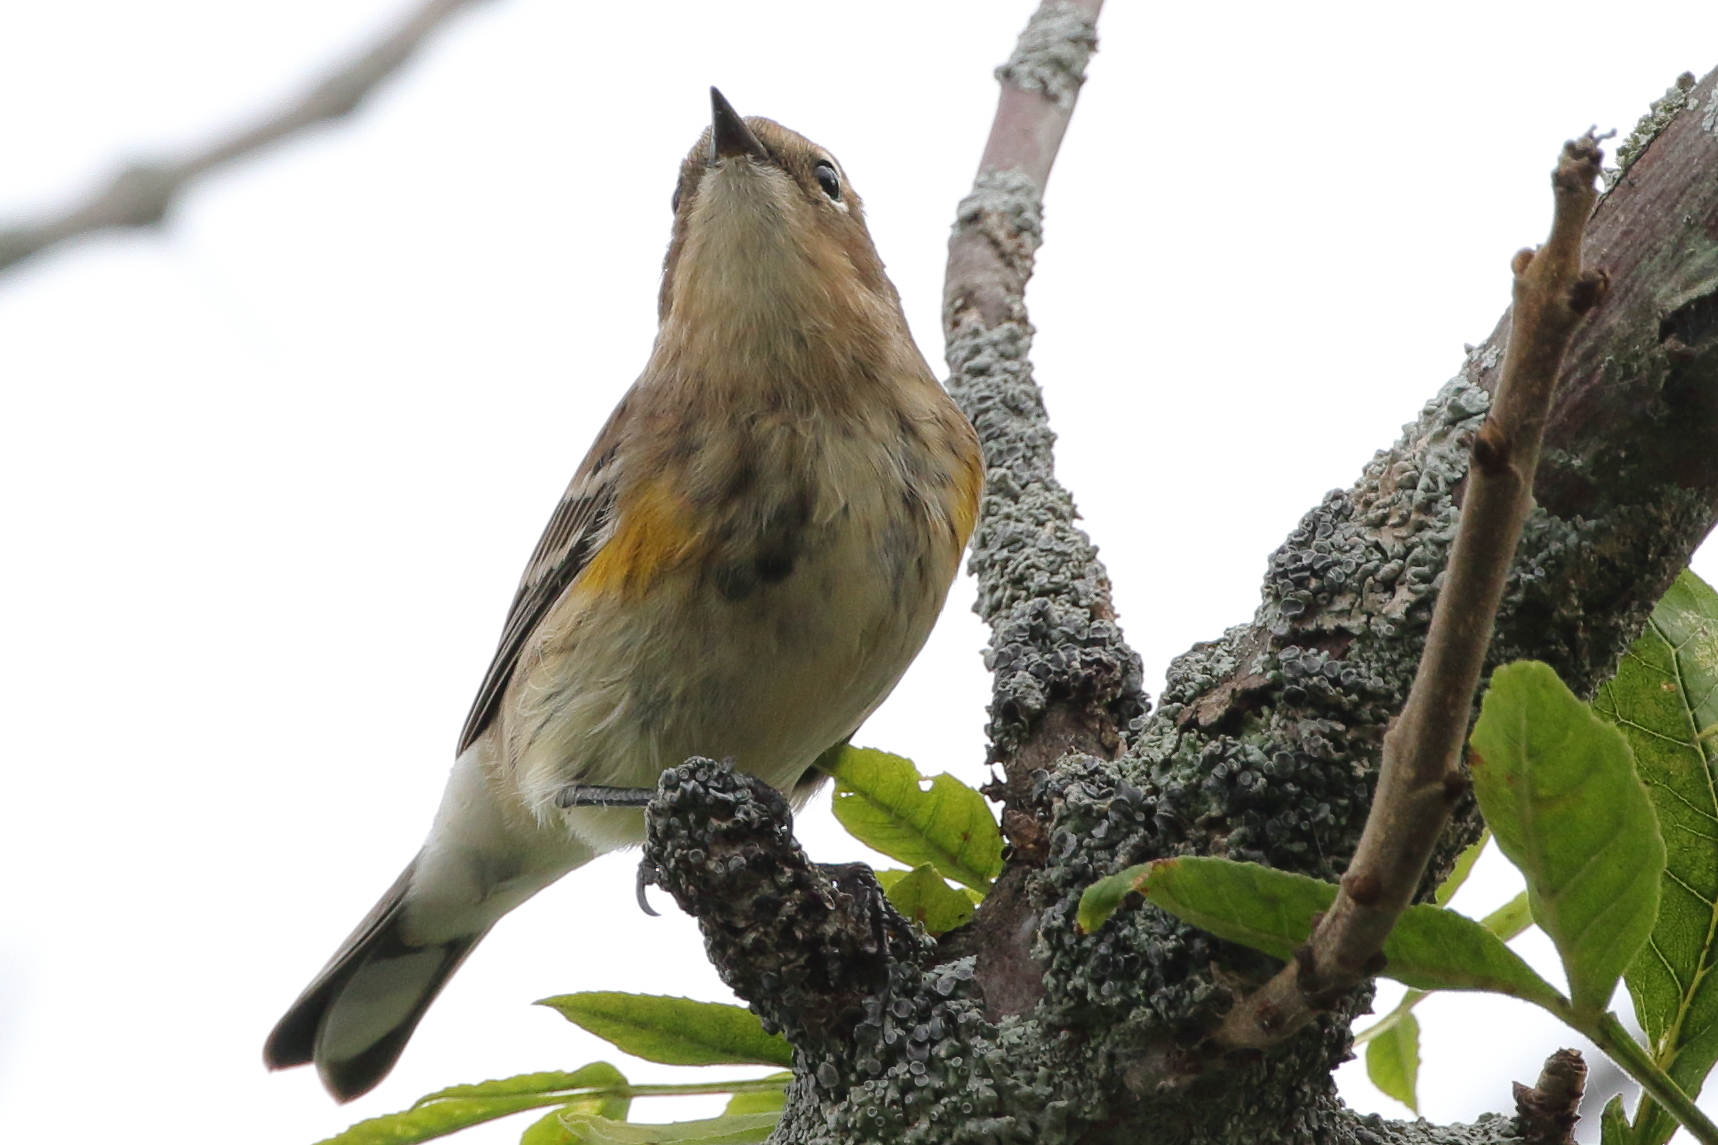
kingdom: Animalia
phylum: Chordata
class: Aves
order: Passeriformes
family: Parulidae
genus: Setophaga
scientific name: Setophaga coronata
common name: Myrtle warbler
